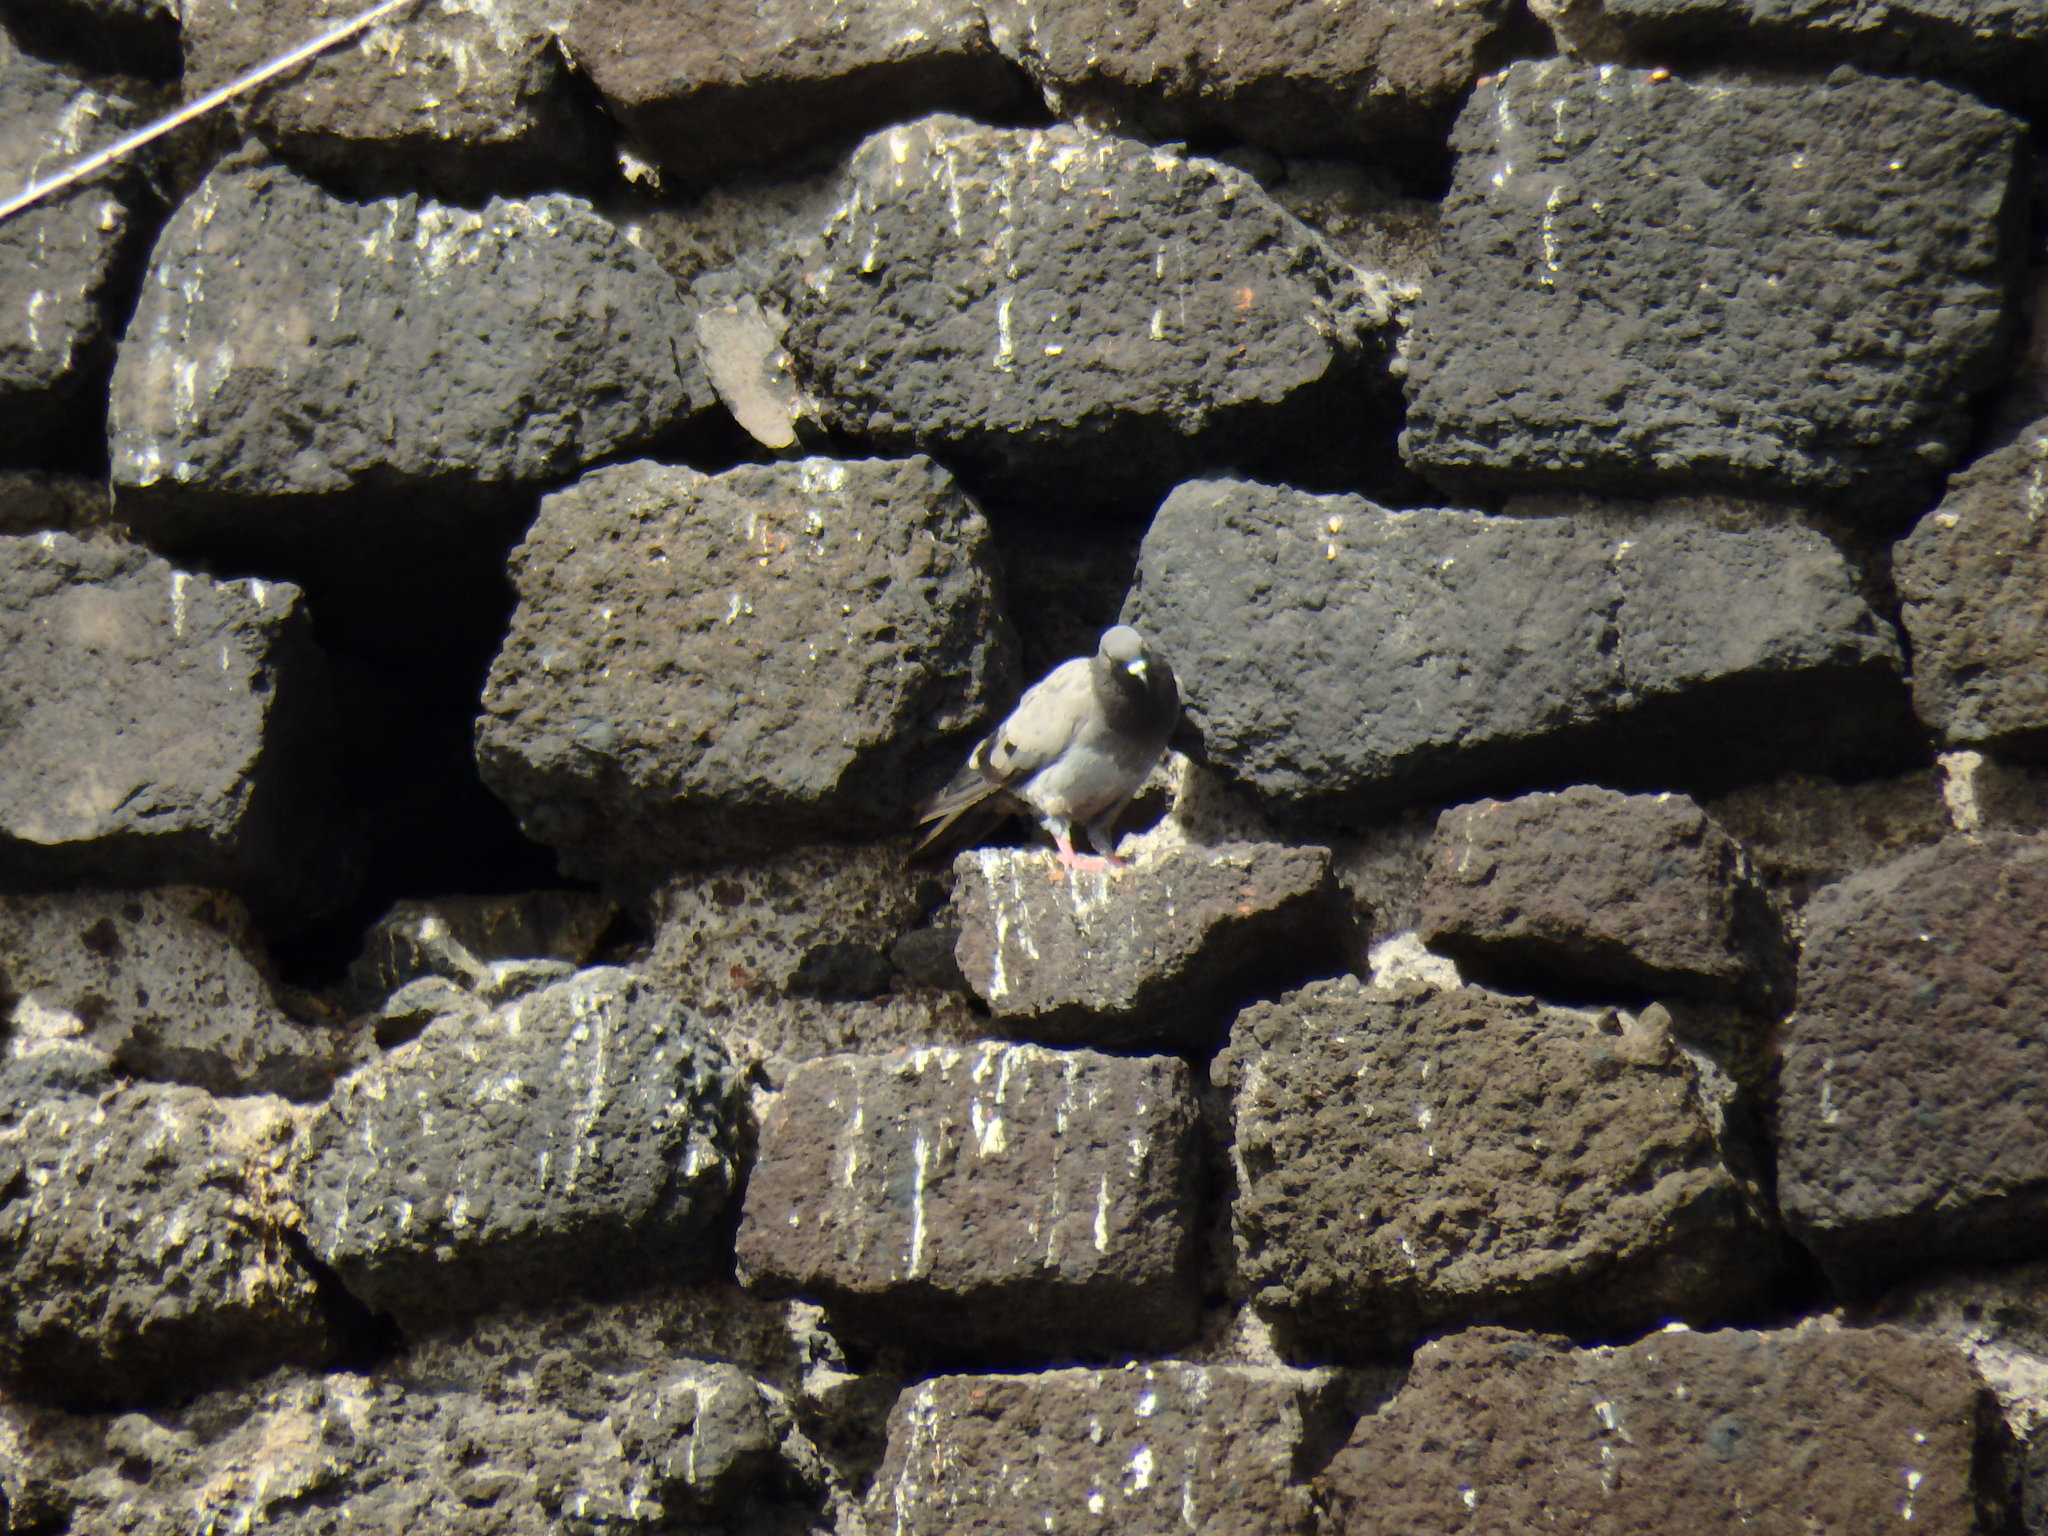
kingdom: Animalia
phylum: Chordata
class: Aves
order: Columbiformes
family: Columbidae
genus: Columba
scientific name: Columba livia
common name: Rock pigeon
